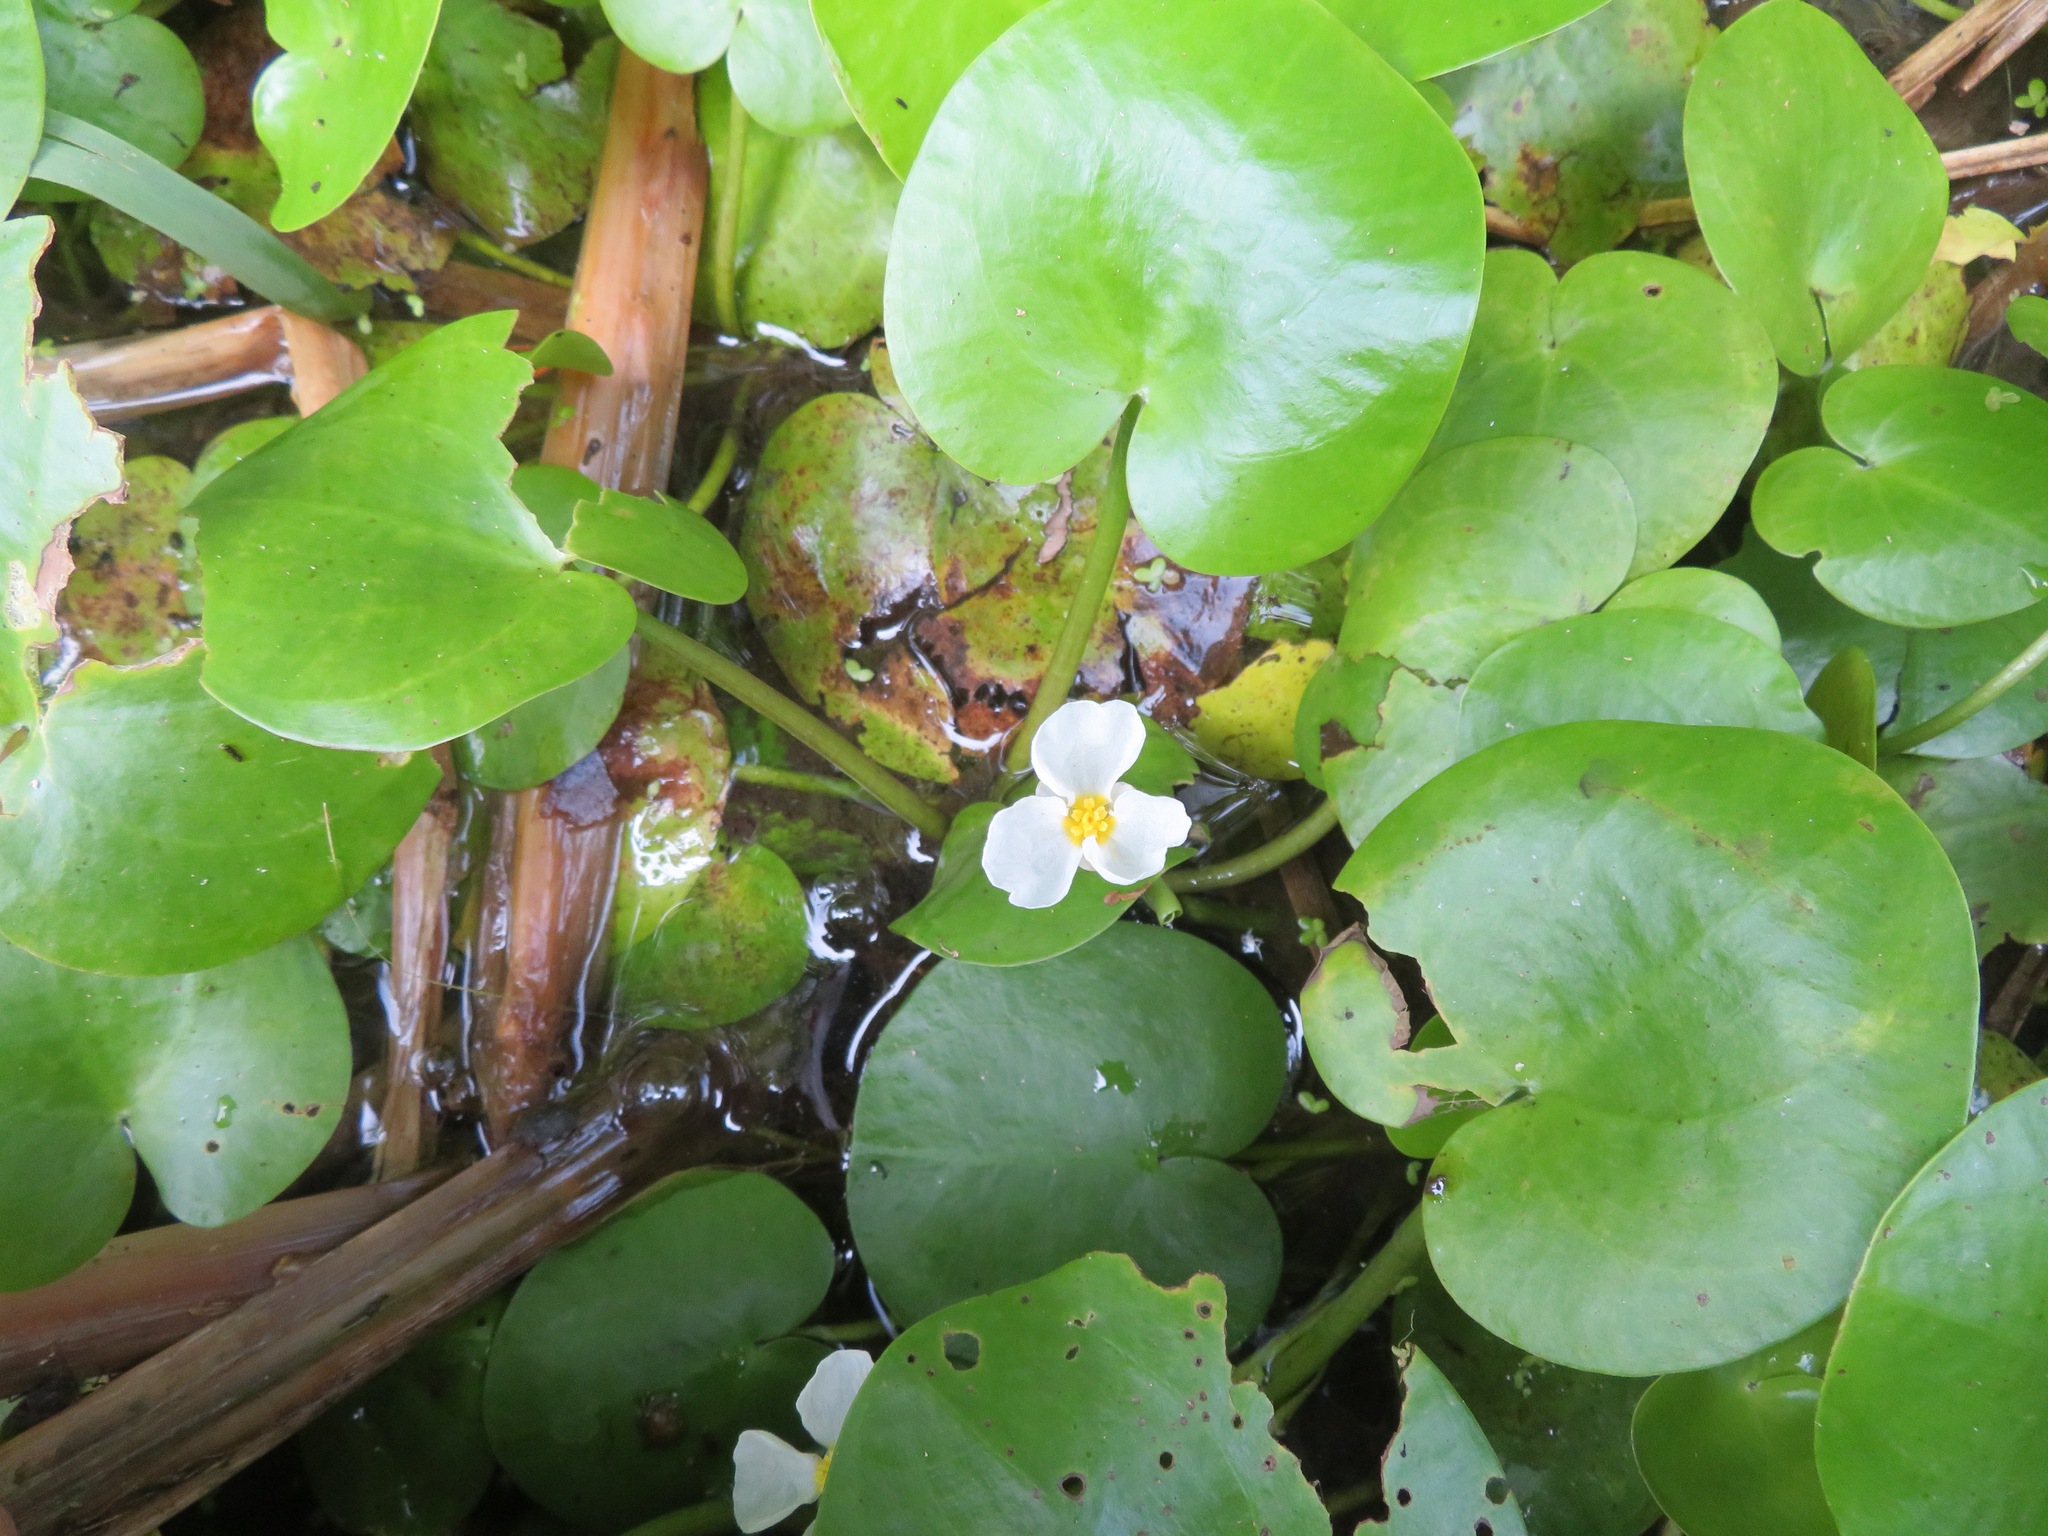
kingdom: Plantae
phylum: Tracheophyta
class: Liliopsida
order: Alismatales
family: Hydrocharitaceae
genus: Hydrocharis
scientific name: Hydrocharis dubia
